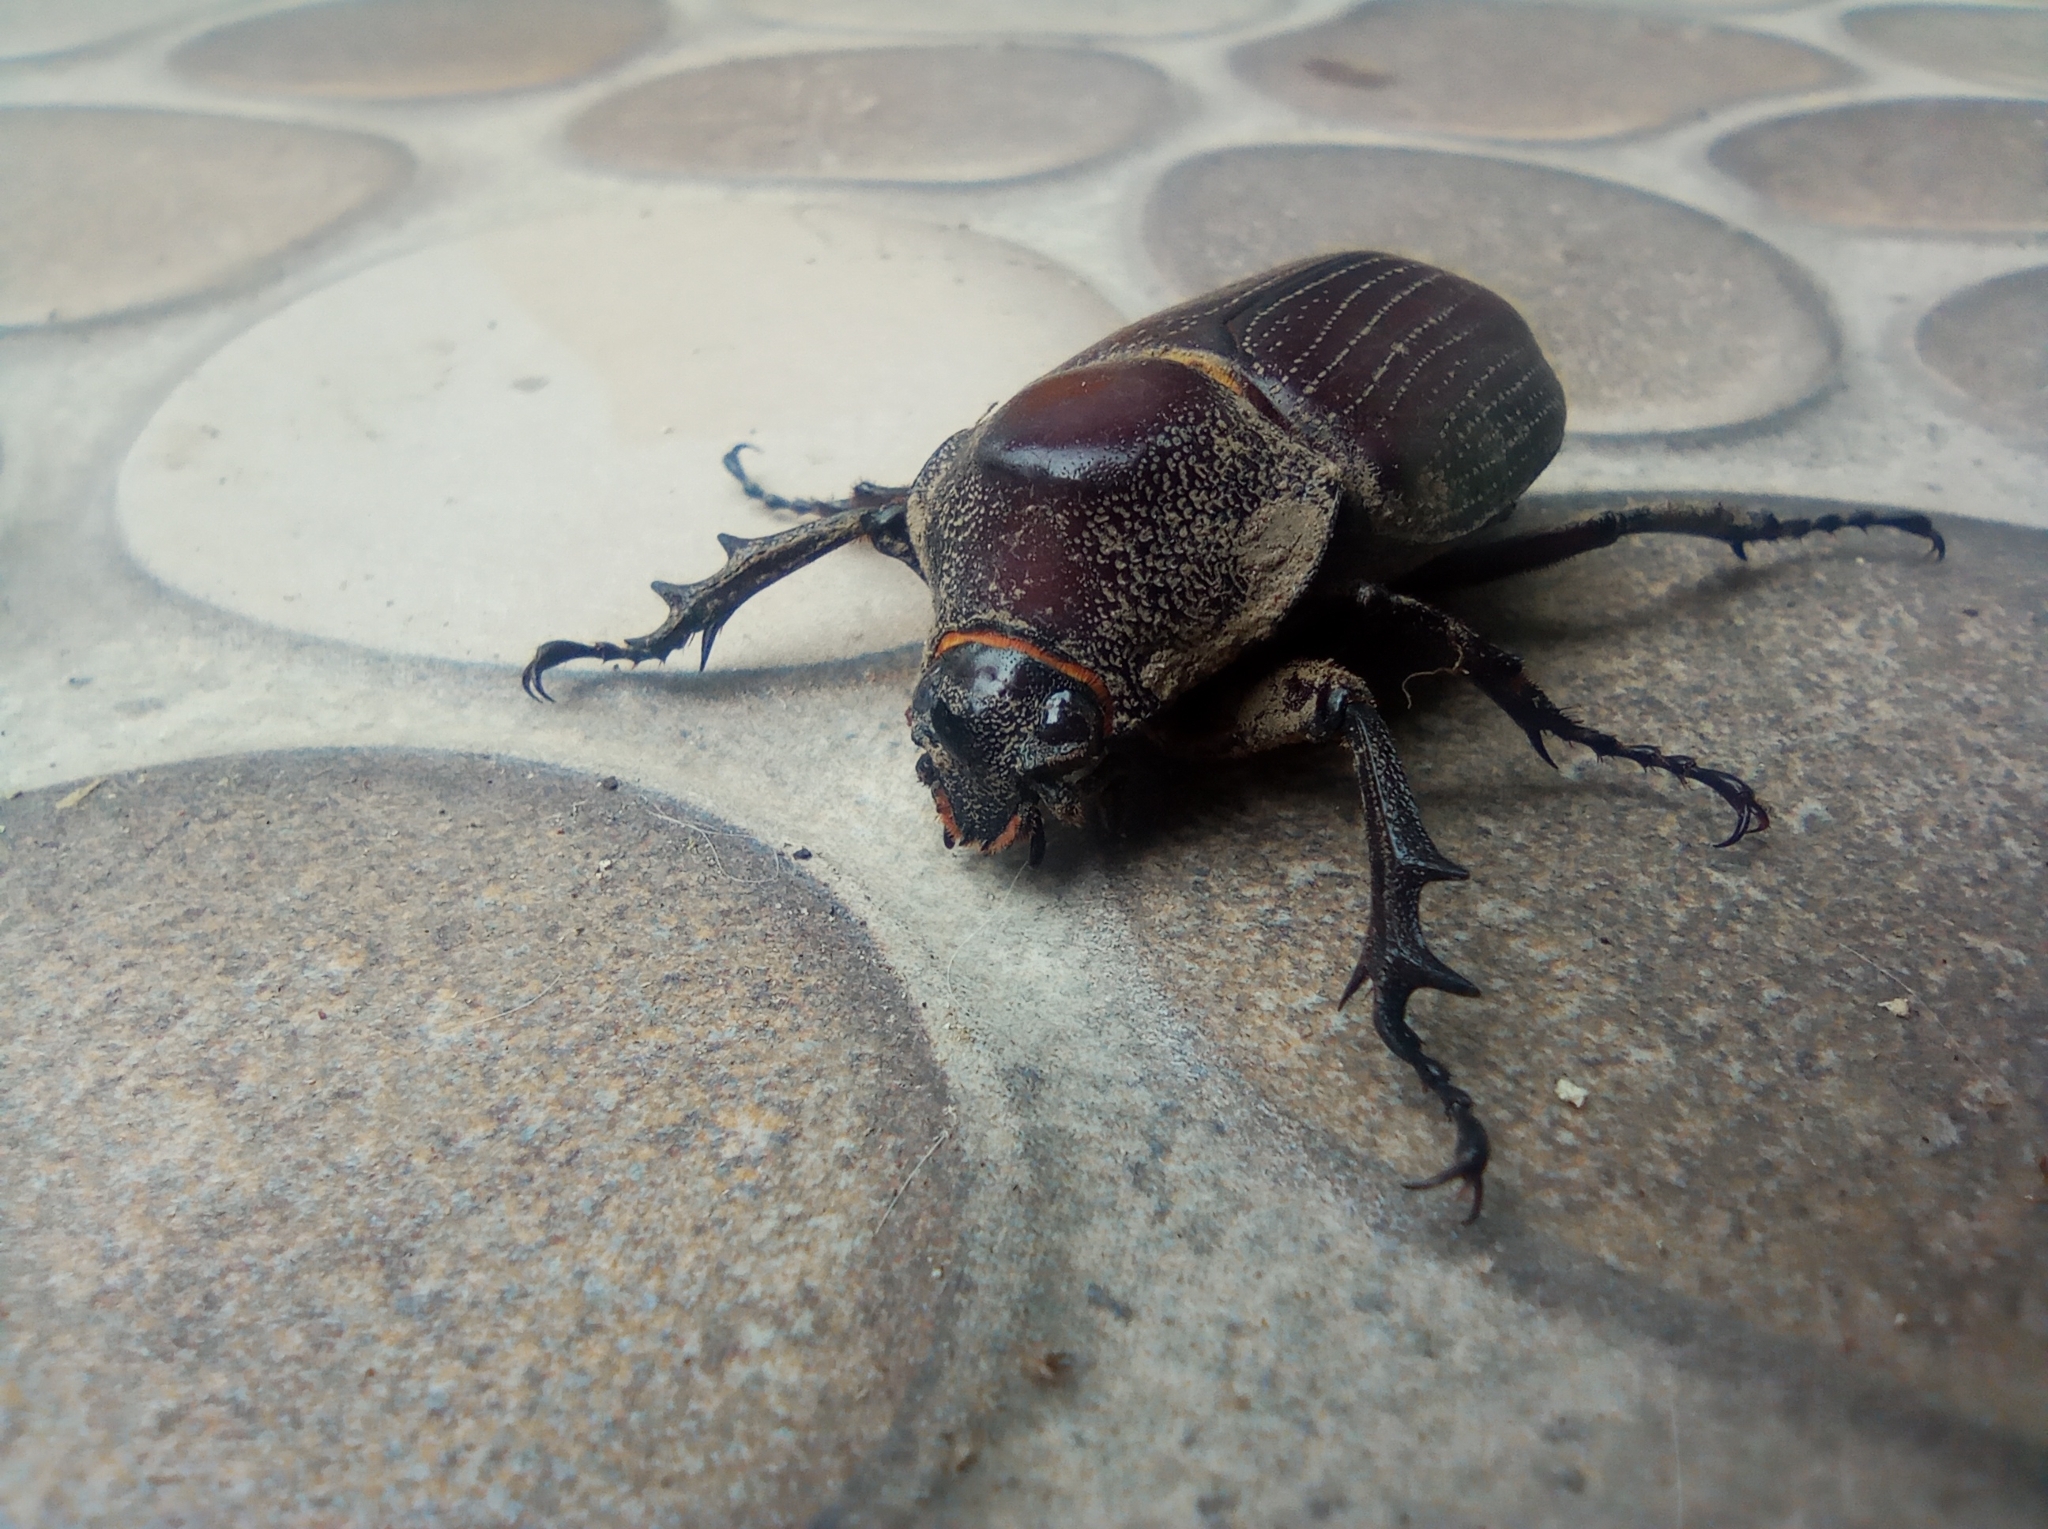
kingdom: Animalia
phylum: Arthropoda
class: Insecta
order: Coleoptera
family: Scarabaeidae
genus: Coelosis
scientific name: Coelosis biloba
